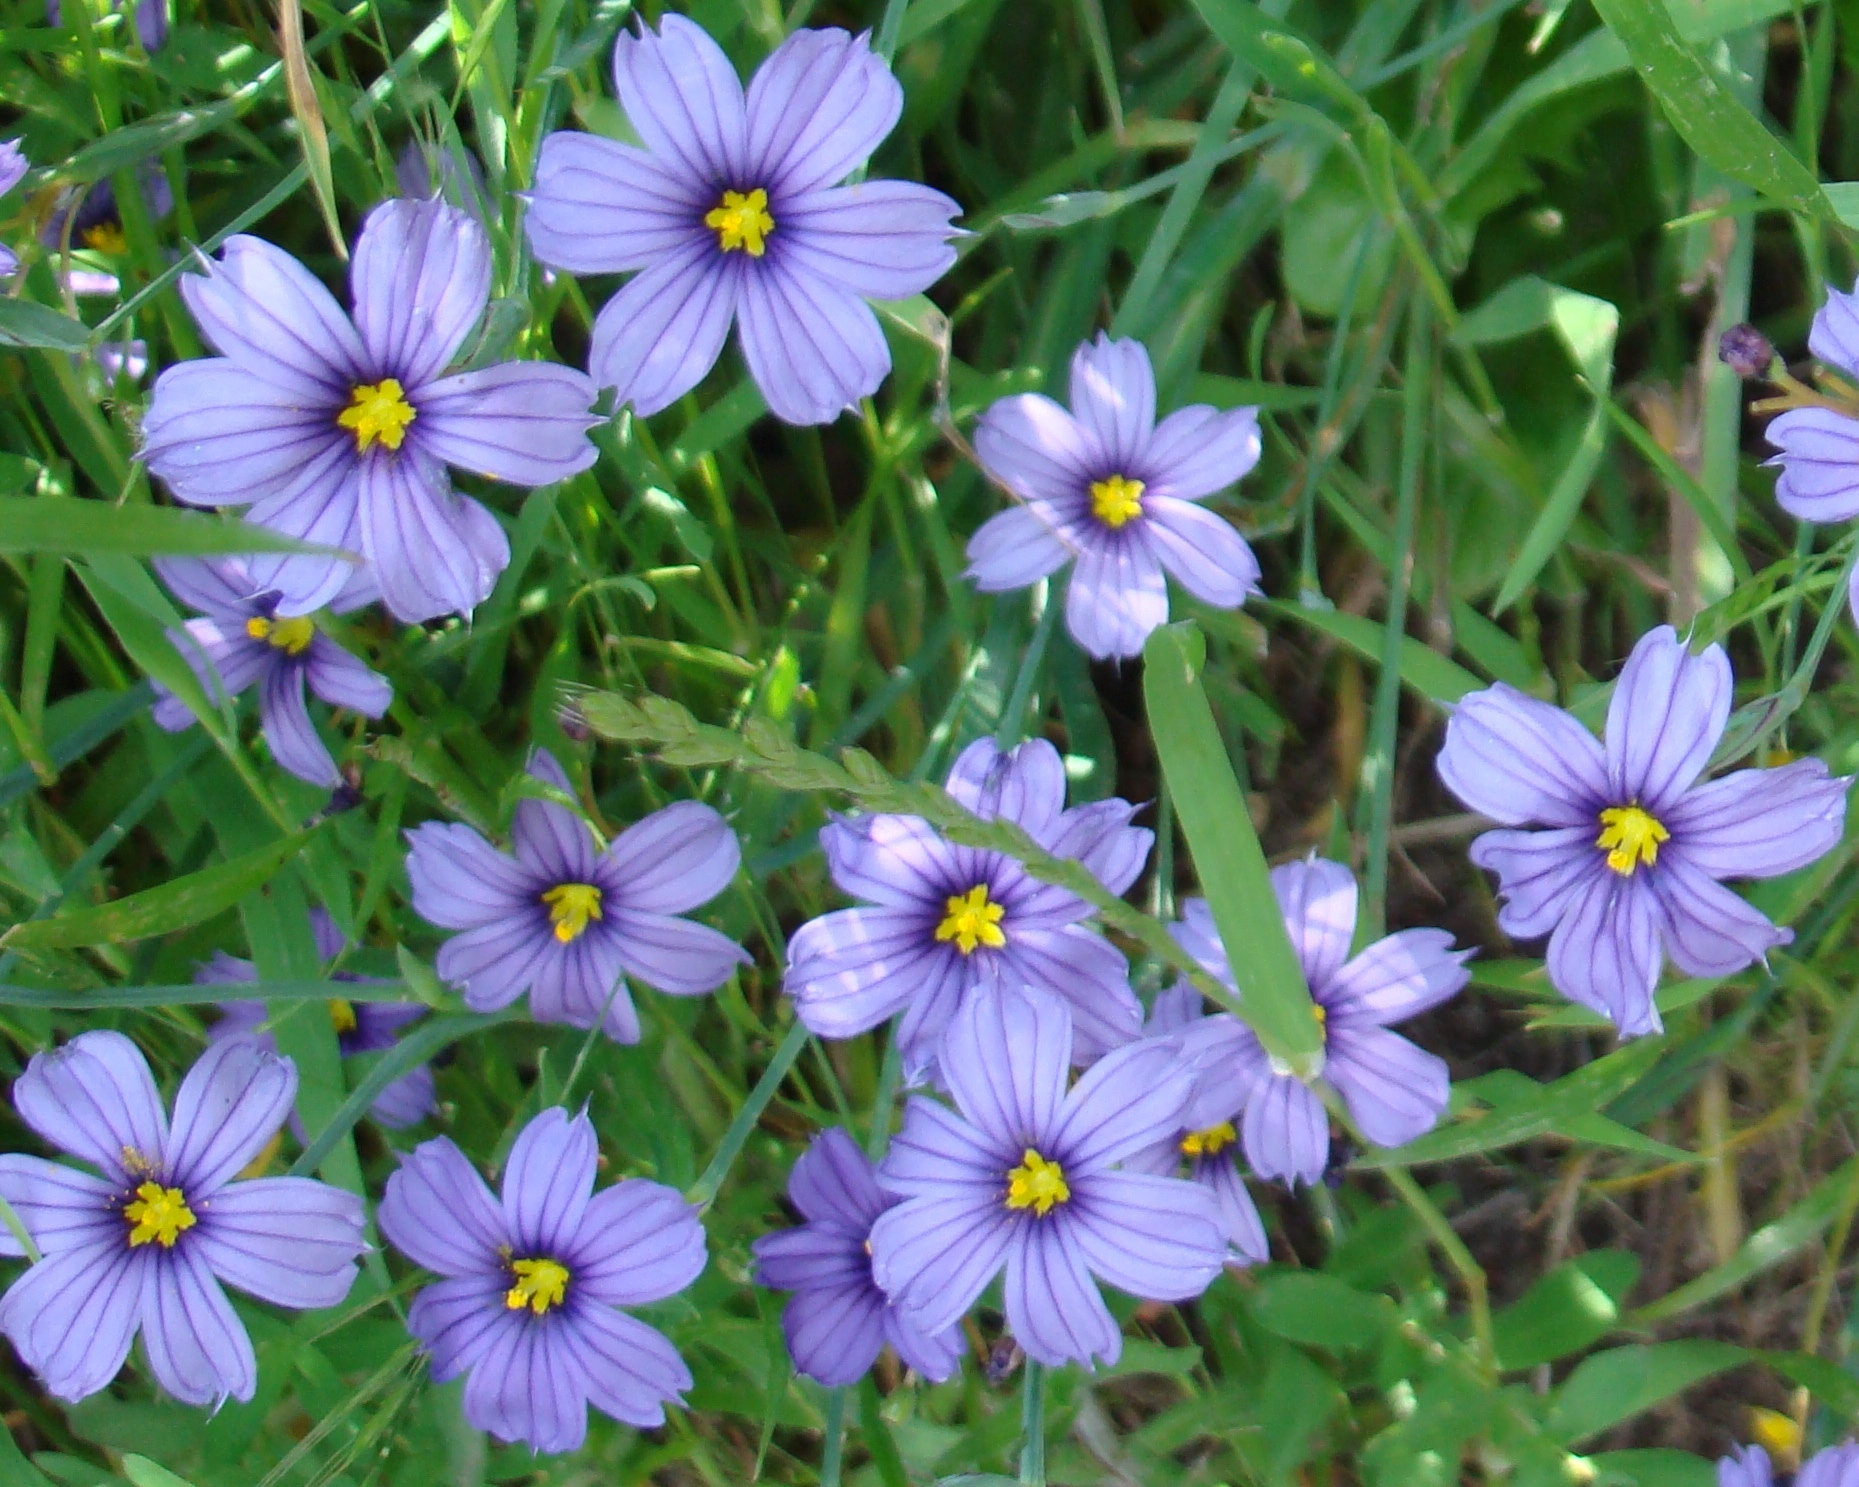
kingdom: Plantae
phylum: Tracheophyta
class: Liliopsida
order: Asparagales
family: Iridaceae
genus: Sisyrinchium
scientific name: Sisyrinchium bellum
